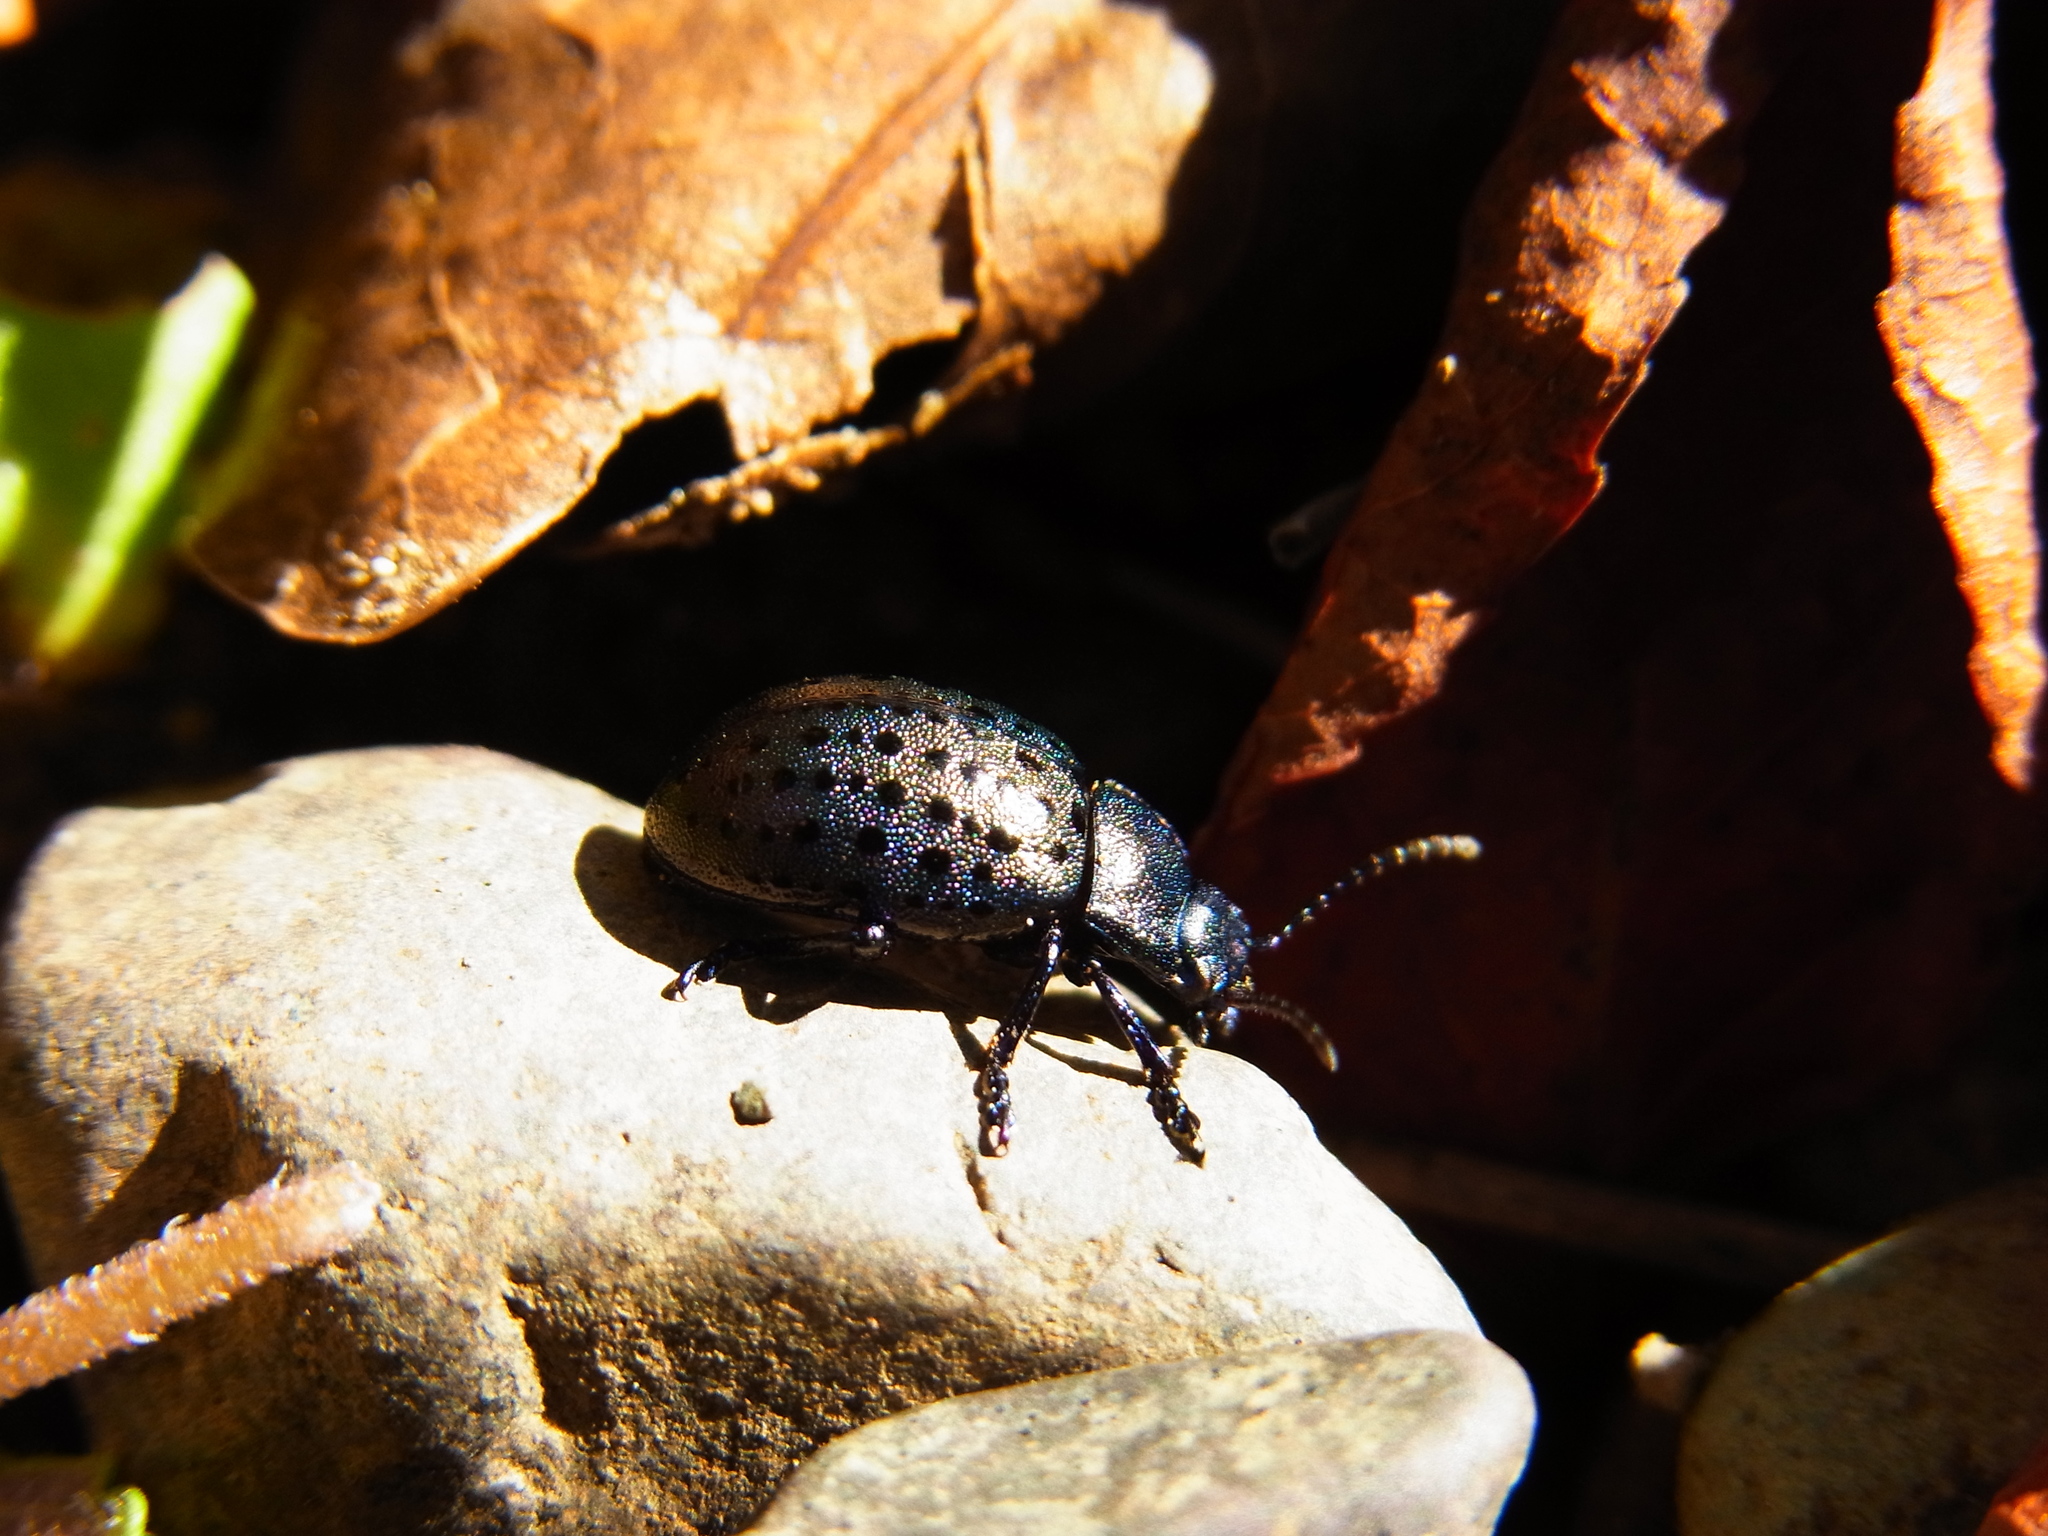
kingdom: Animalia
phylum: Arthropoda
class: Insecta
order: Coleoptera
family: Chrysomelidae
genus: Chrysolina
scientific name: Chrysolina
